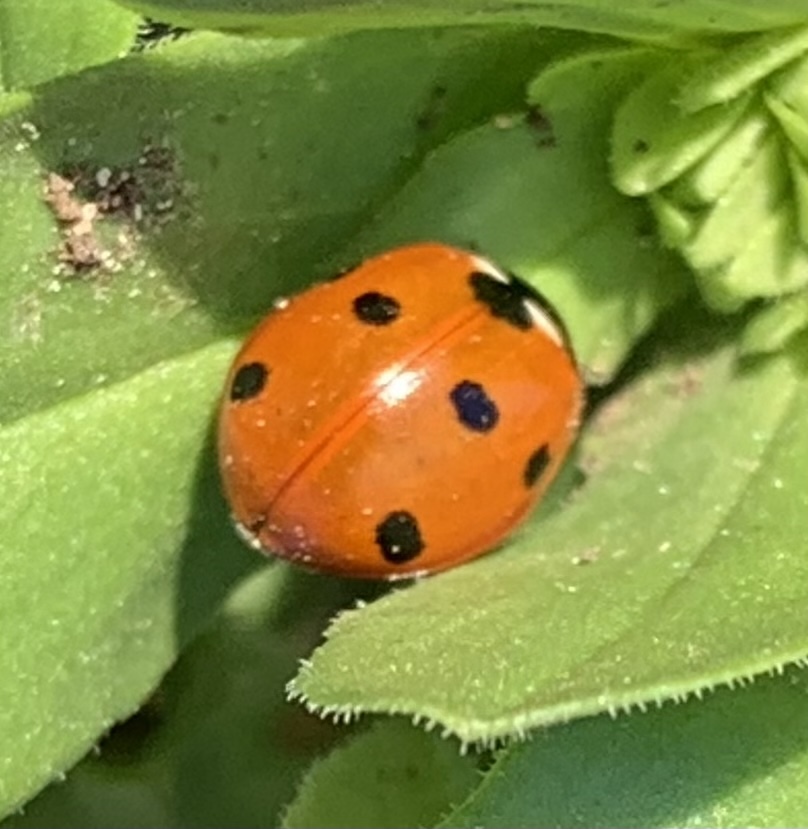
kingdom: Animalia
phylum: Arthropoda
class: Insecta
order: Coleoptera
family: Coccinellidae
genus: Coccinella
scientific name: Coccinella septempunctata
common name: Sevenspotted lady beetle
